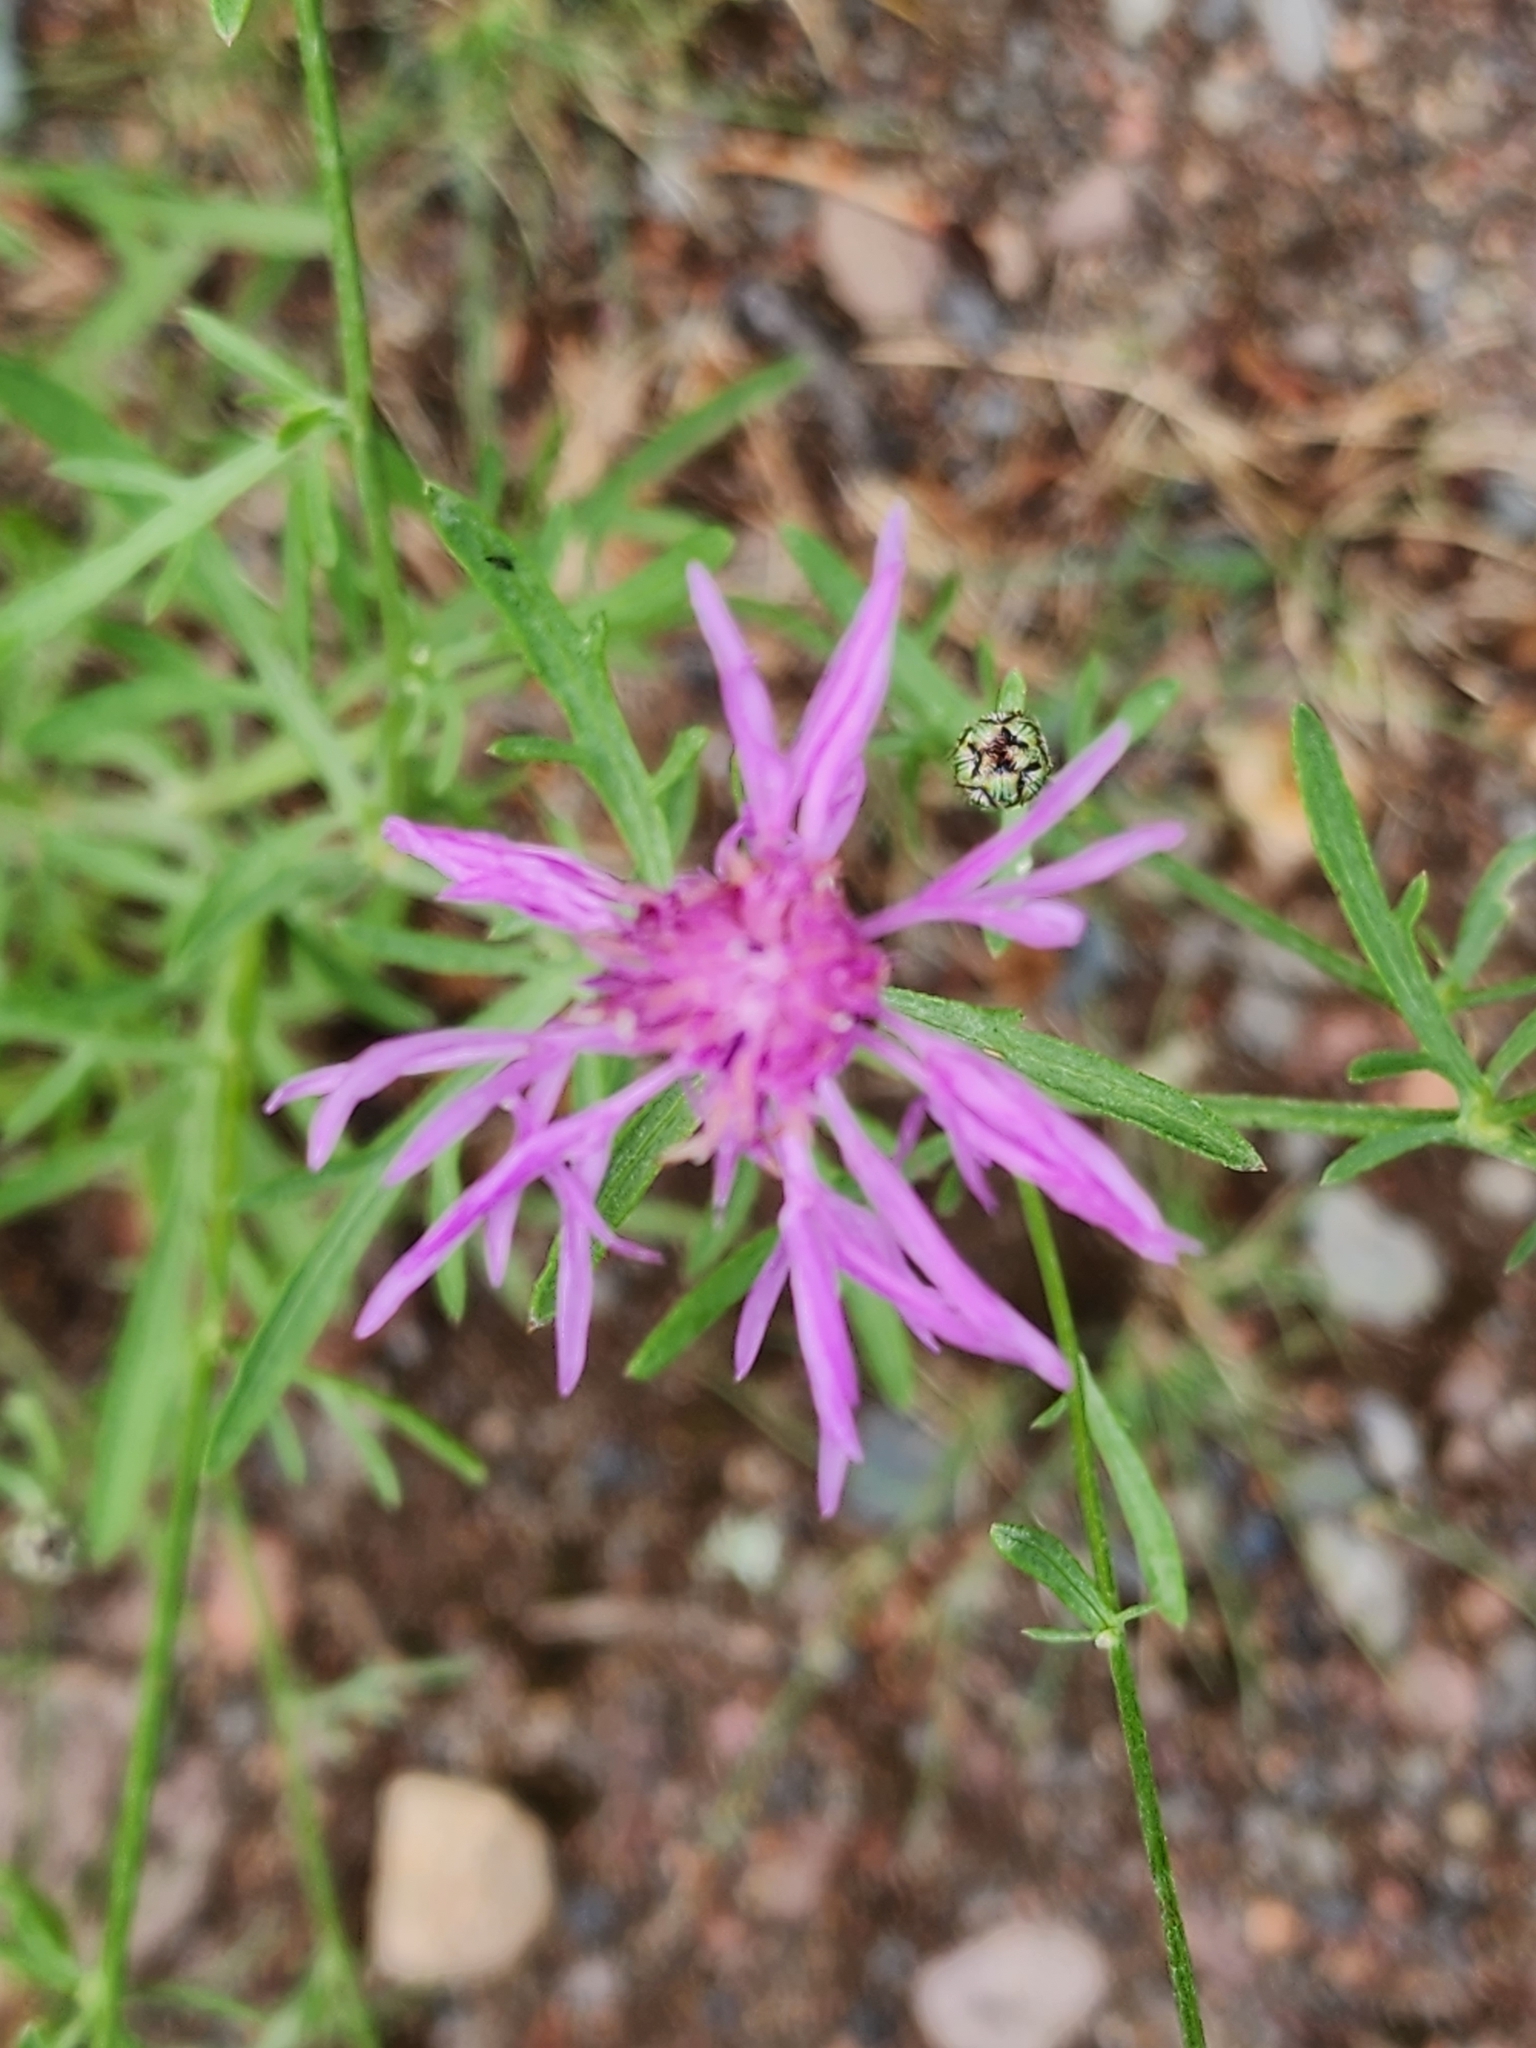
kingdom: Plantae
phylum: Tracheophyta
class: Magnoliopsida
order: Asterales
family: Asteraceae
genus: Centaurea
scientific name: Centaurea stoebe
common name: Spotted knapweed
